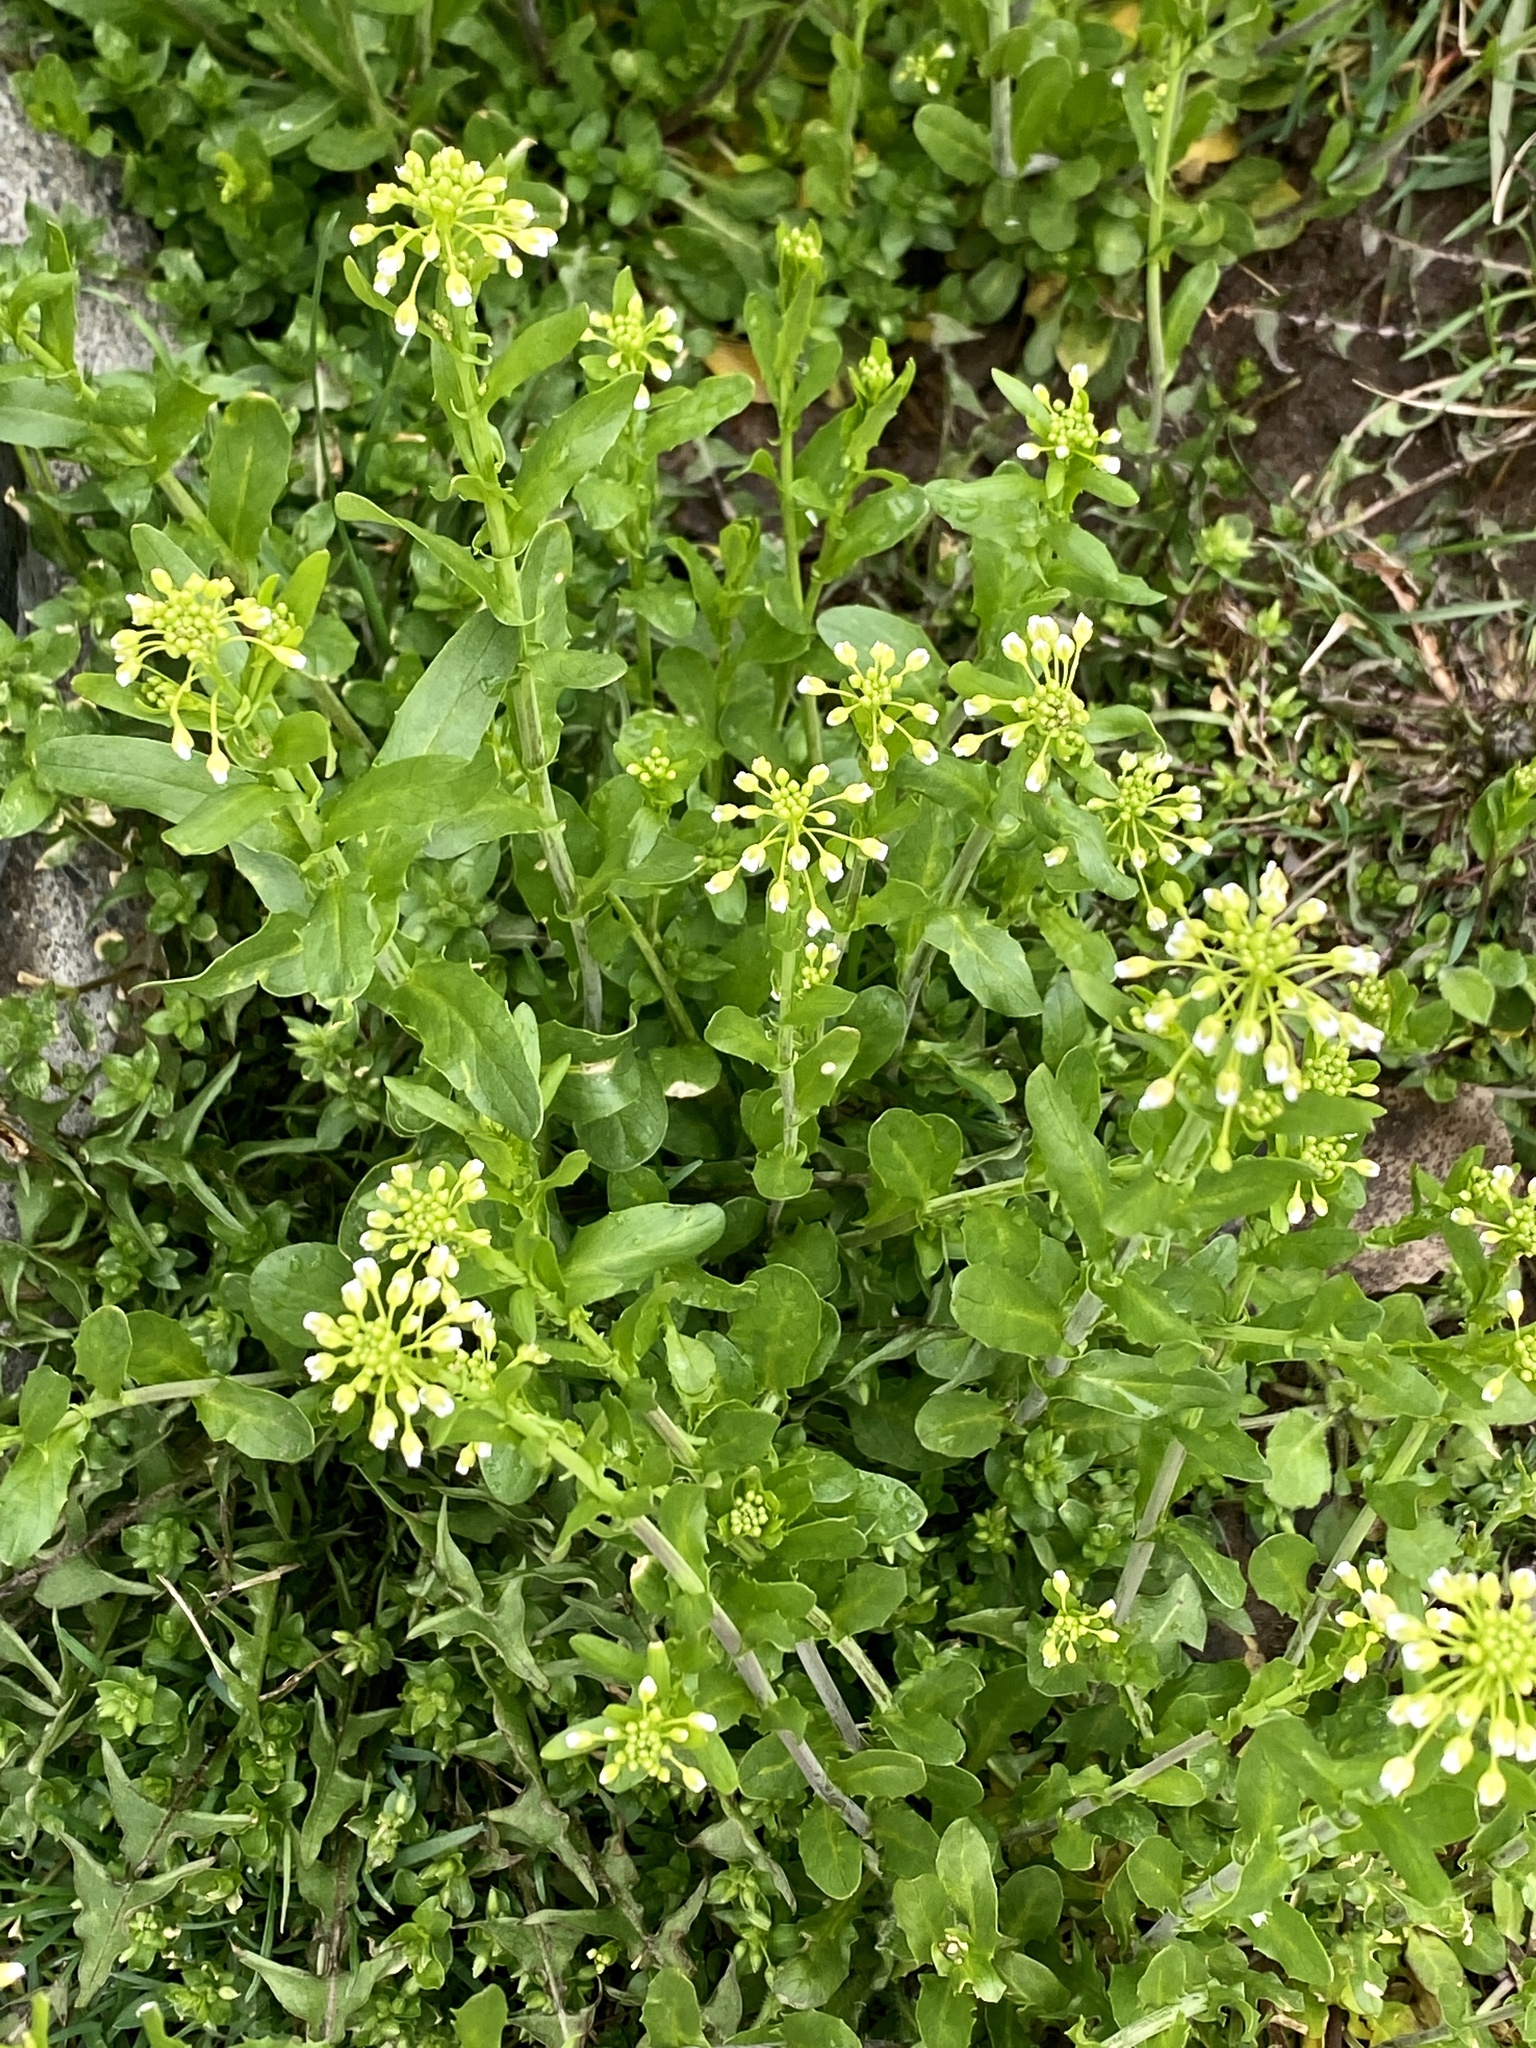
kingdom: Plantae
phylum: Tracheophyta
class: Magnoliopsida
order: Brassicales
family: Brassicaceae
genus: Mummenhoffia
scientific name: Mummenhoffia alliacea
